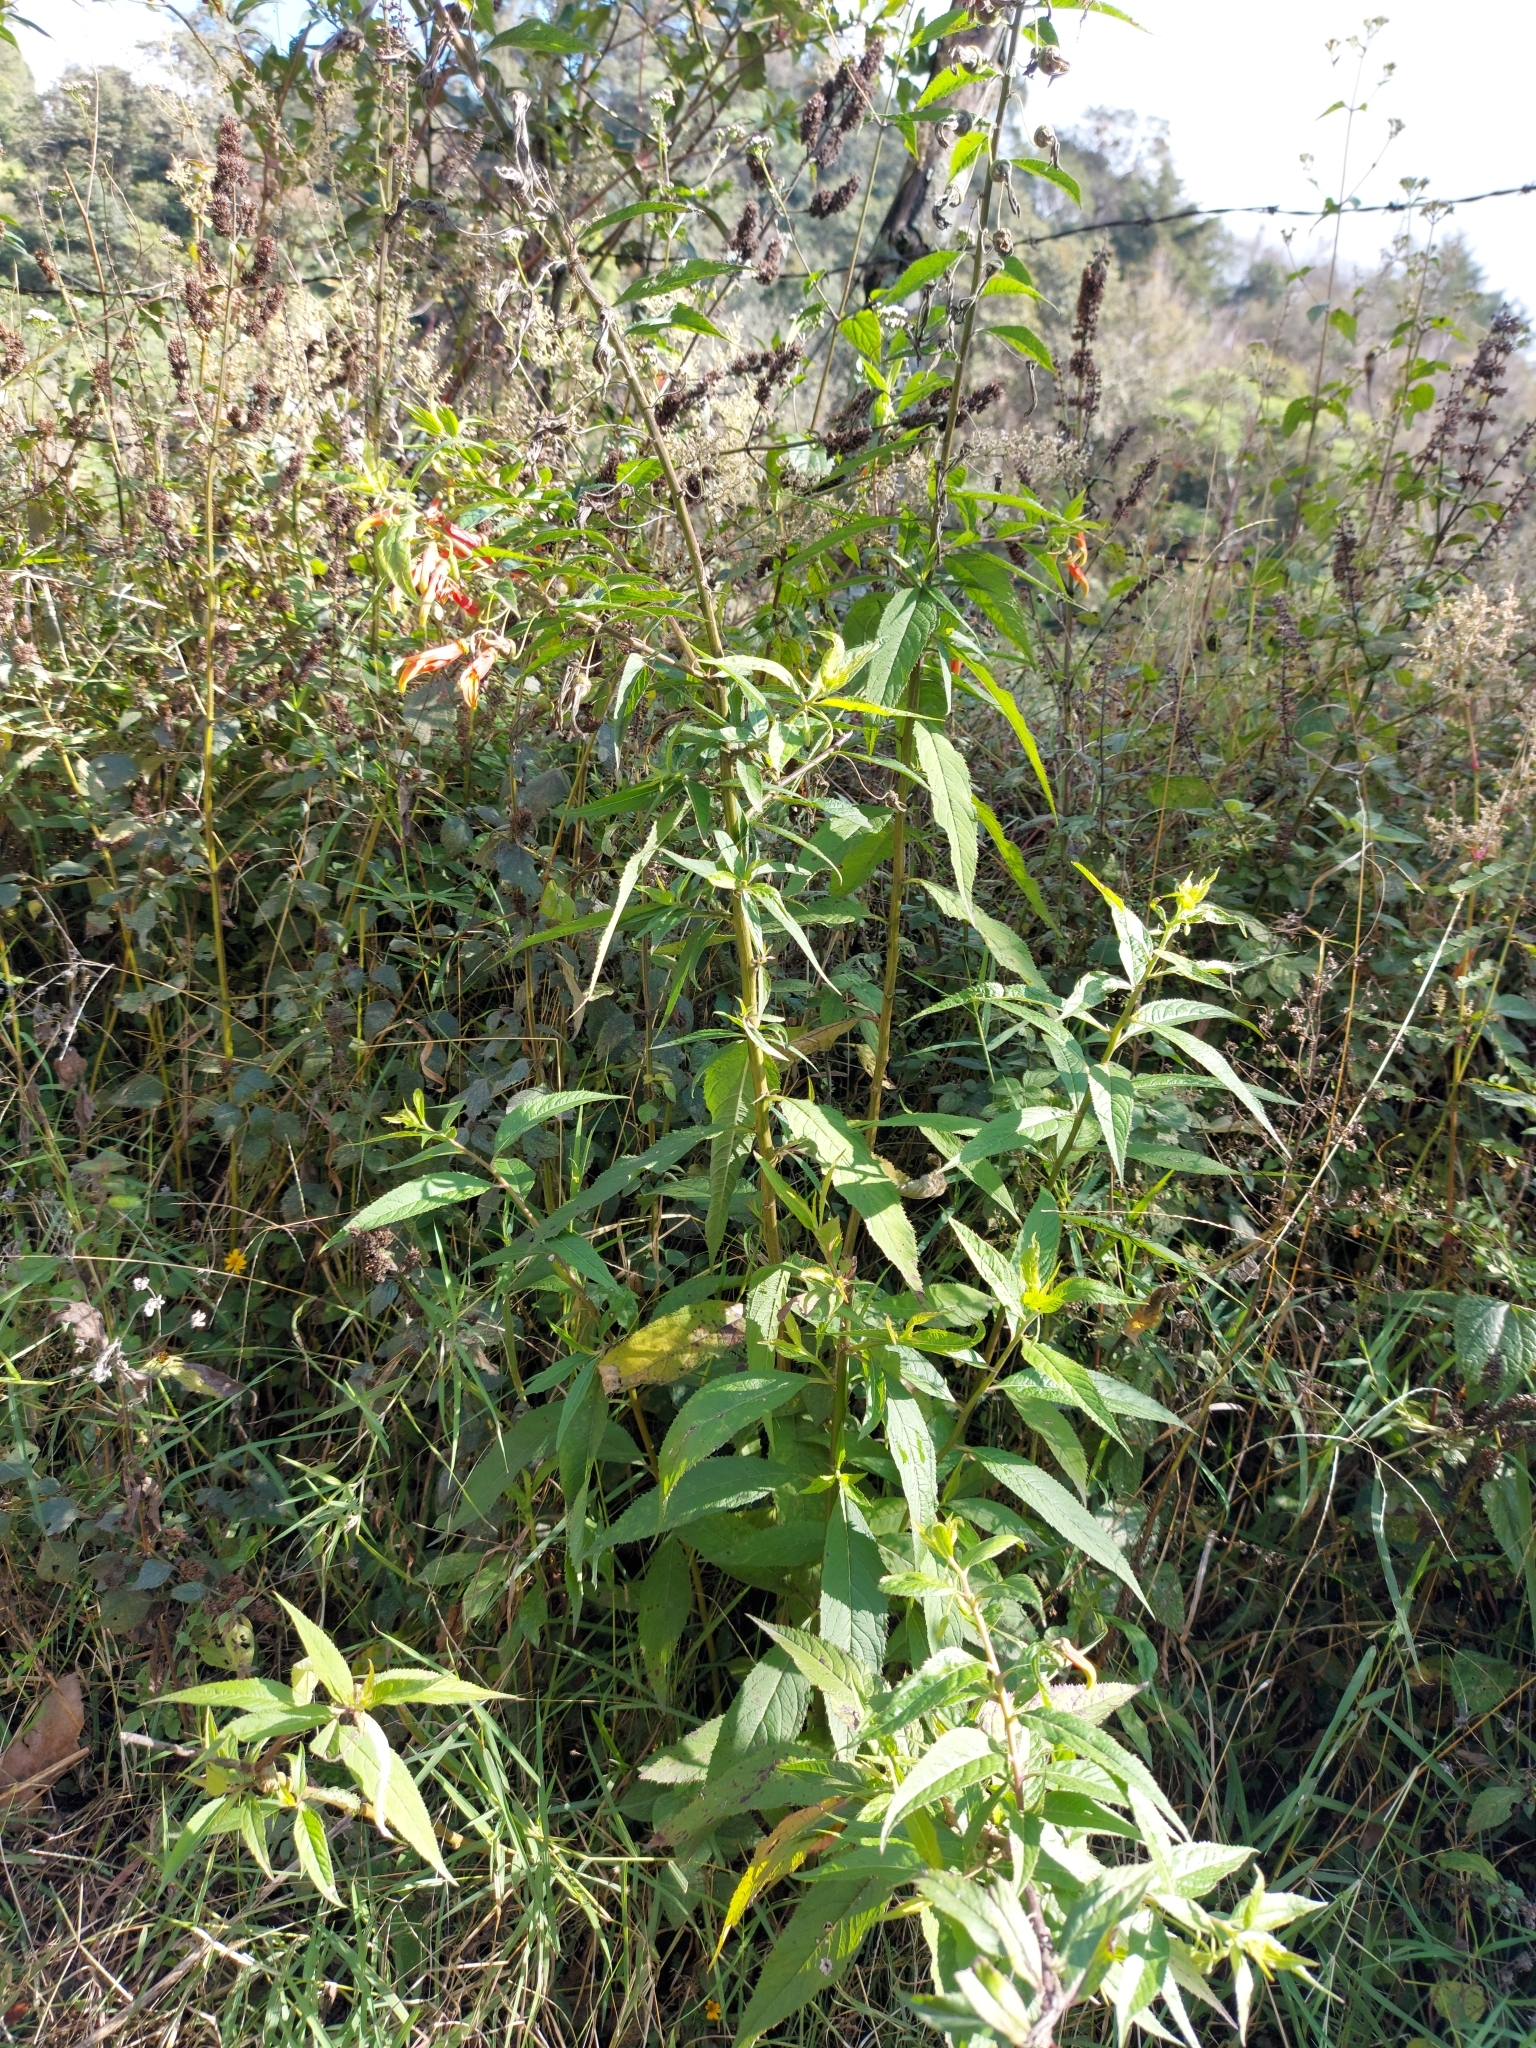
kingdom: Plantae
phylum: Tracheophyta
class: Magnoliopsida
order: Asterales
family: Campanulaceae
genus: Lobelia
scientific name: Lobelia laxiflora
